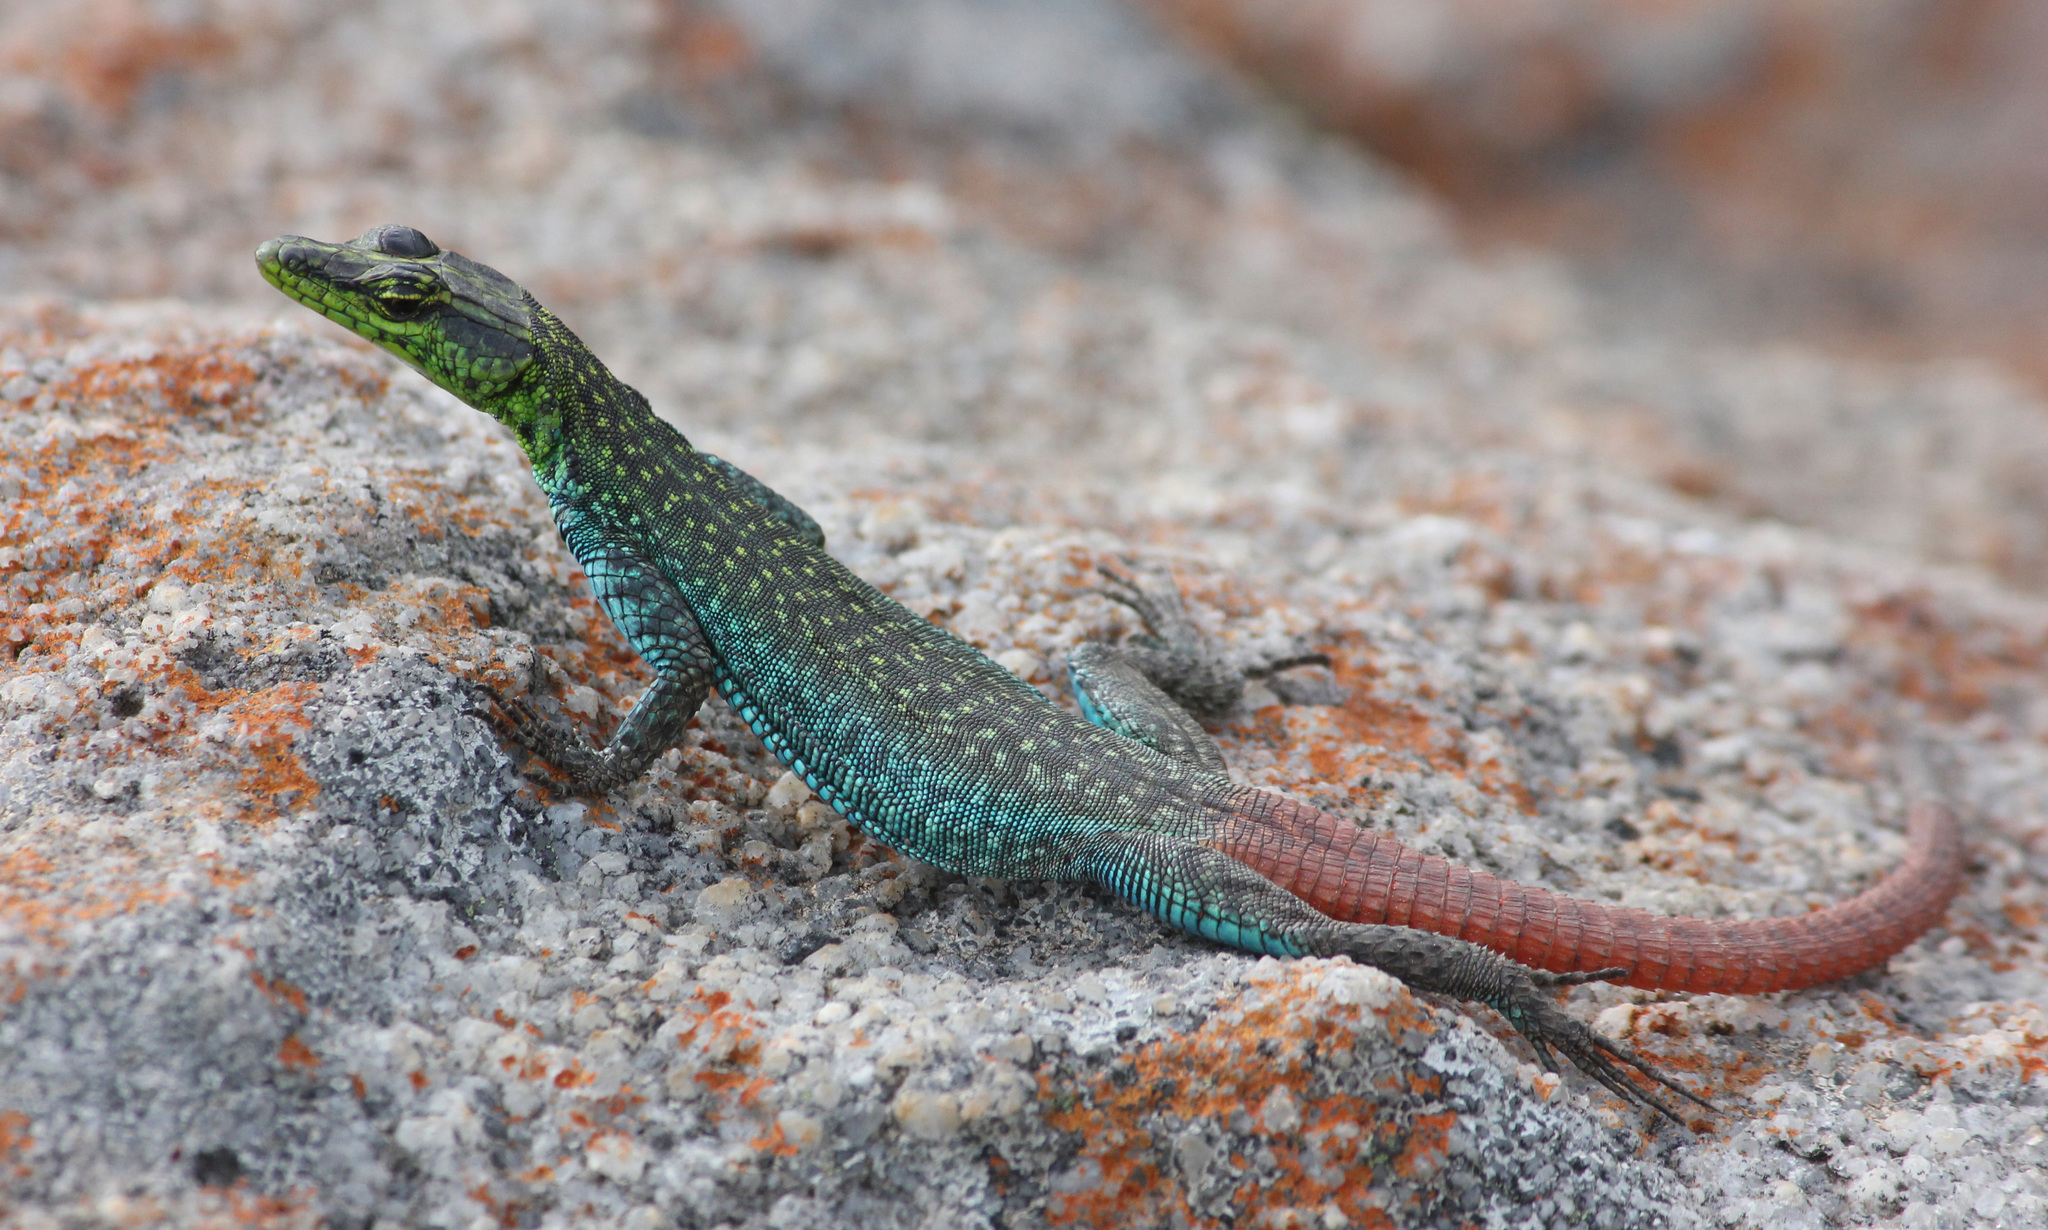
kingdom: Animalia
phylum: Chordata
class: Squamata
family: Cordylidae
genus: Platysaurus
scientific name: Platysaurus orientalis
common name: Sekhukune flat lizard
